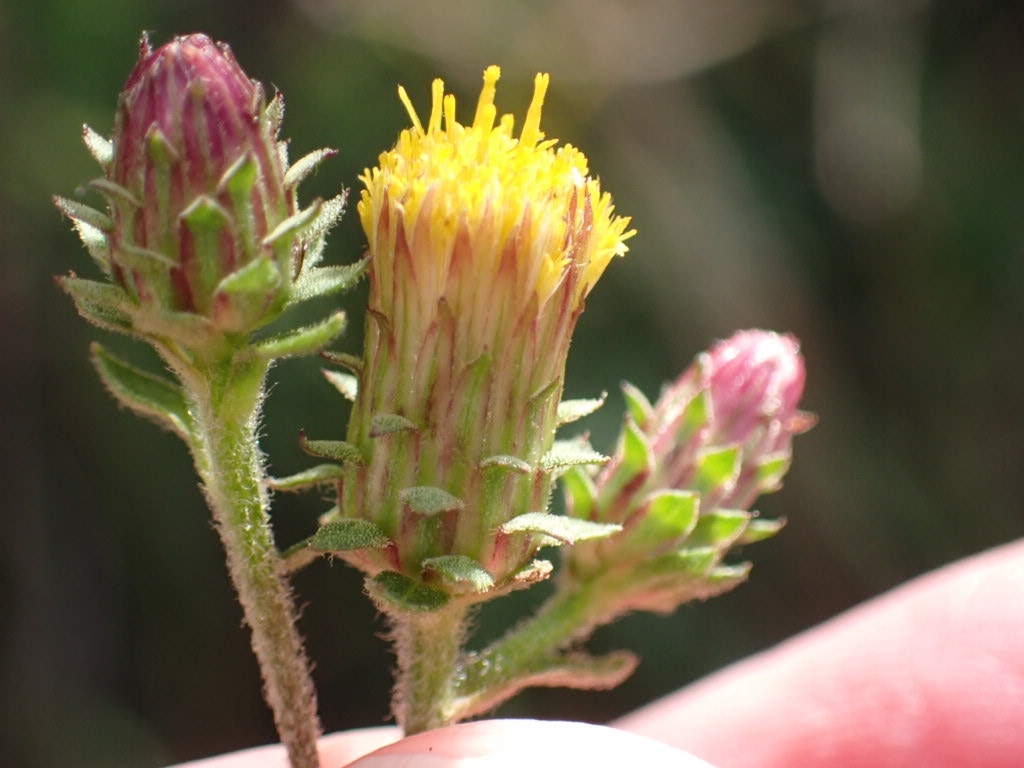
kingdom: Plantae
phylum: Tracheophyta
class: Magnoliopsida
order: Asterales
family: Asteraceae
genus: Pentanema
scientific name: Pentanema squarrosum
